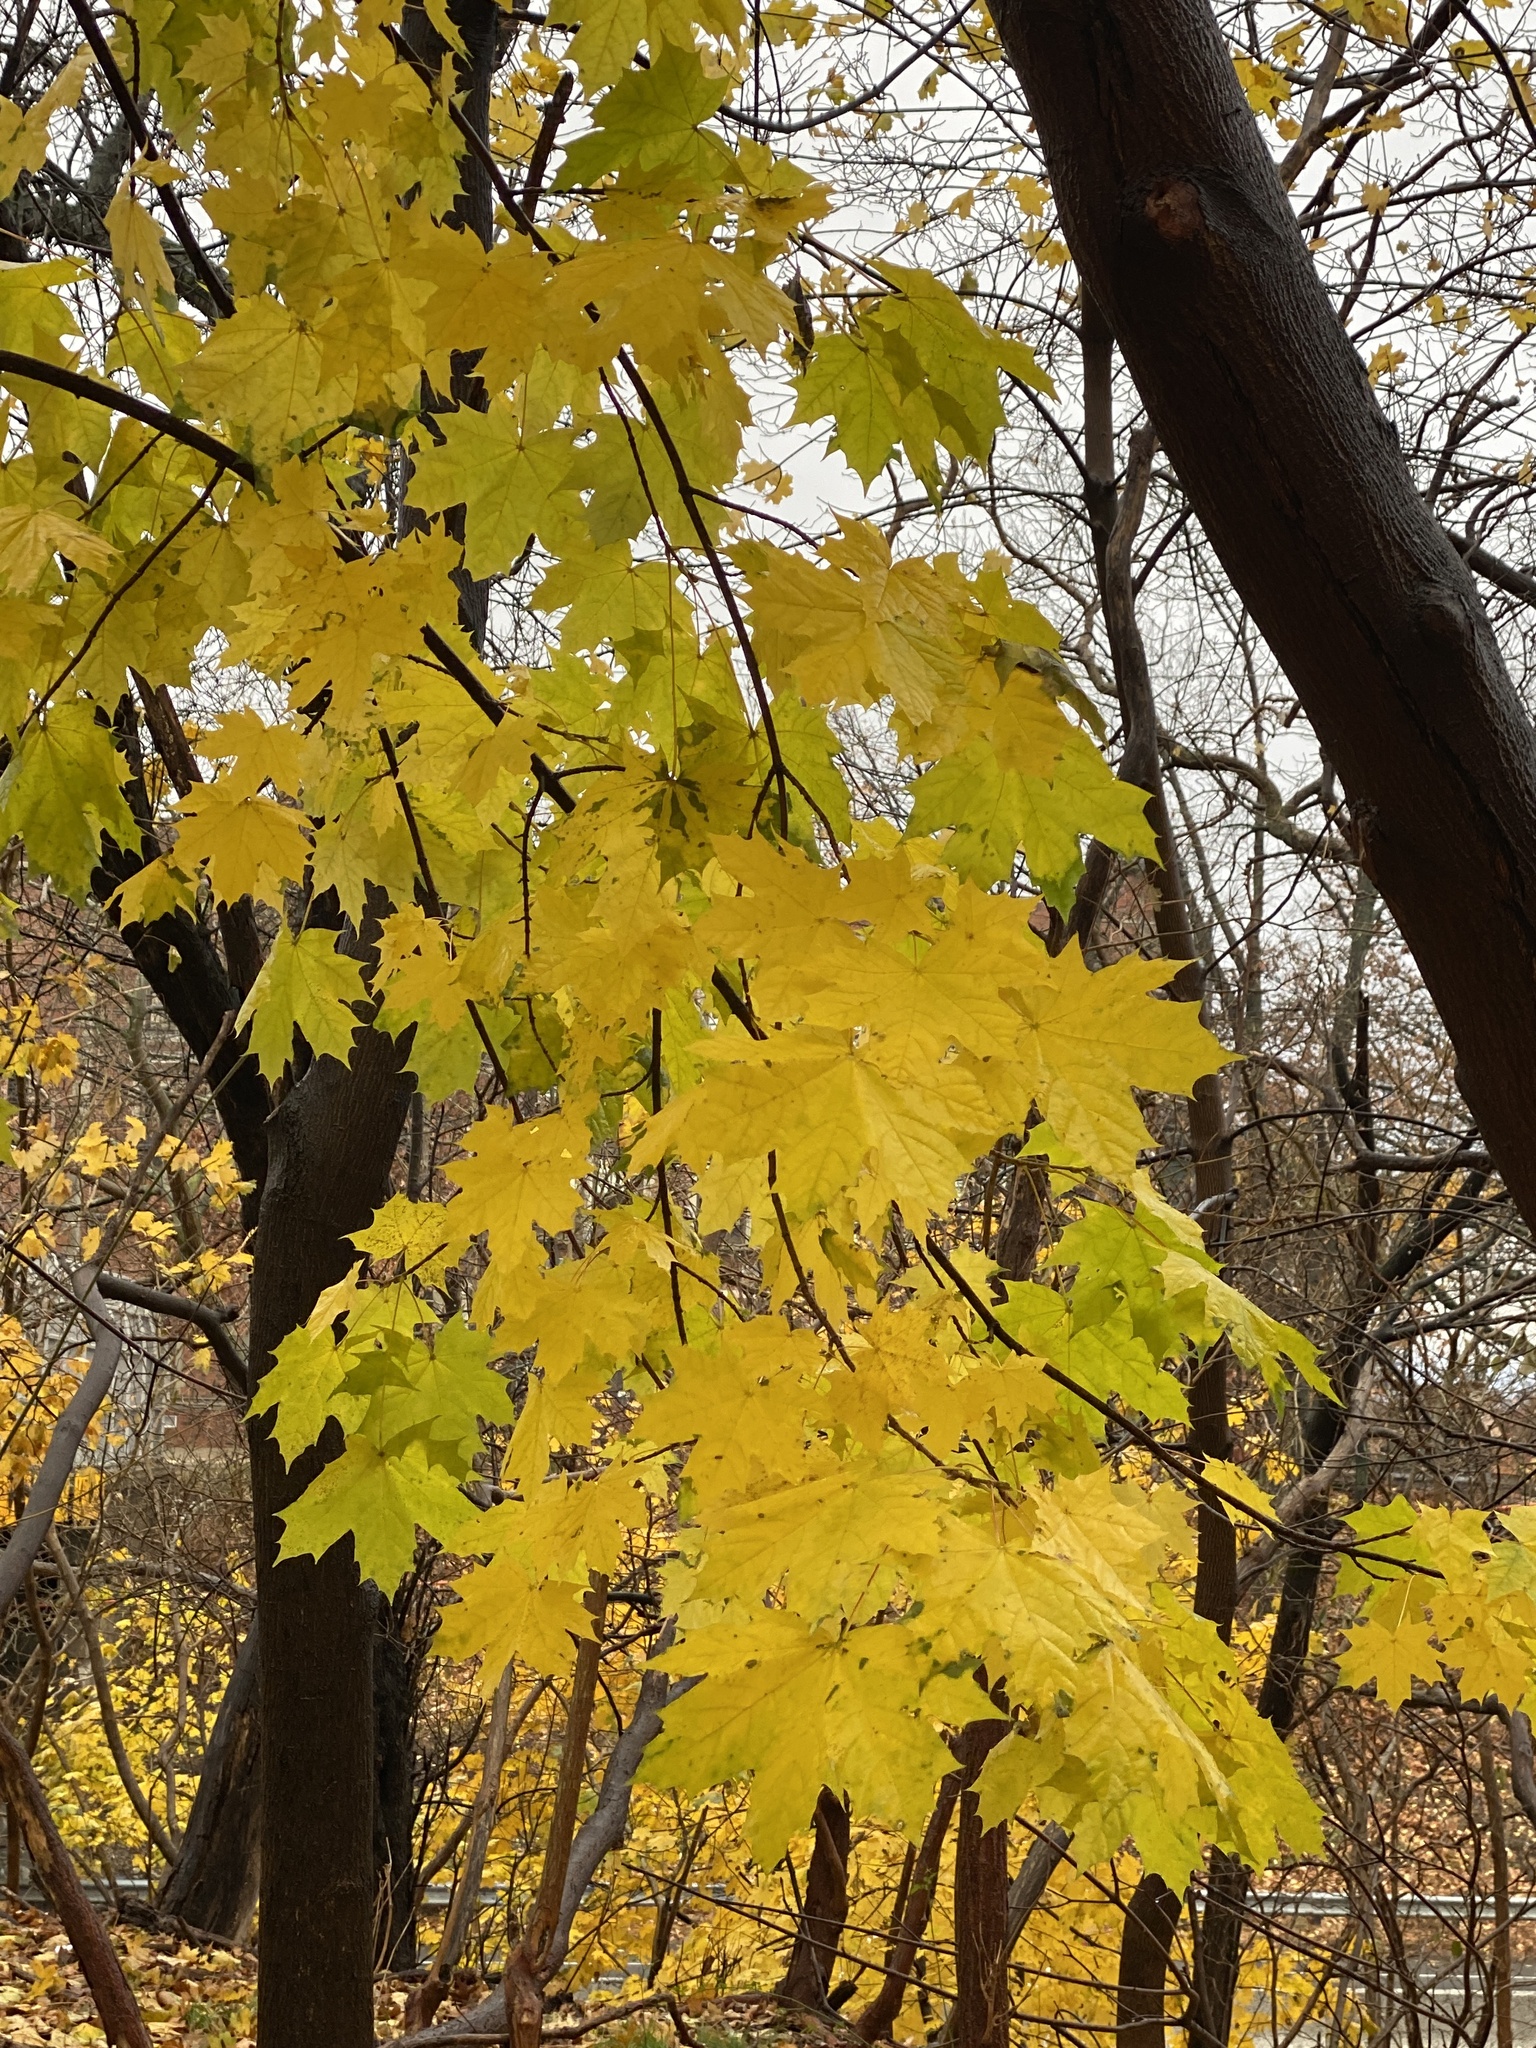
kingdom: Plantae
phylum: Tracheophyta
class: Magnoliopsida
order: Sapindales
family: Sapindaceae
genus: Acer
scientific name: Acer platanoides
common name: Norway maple
